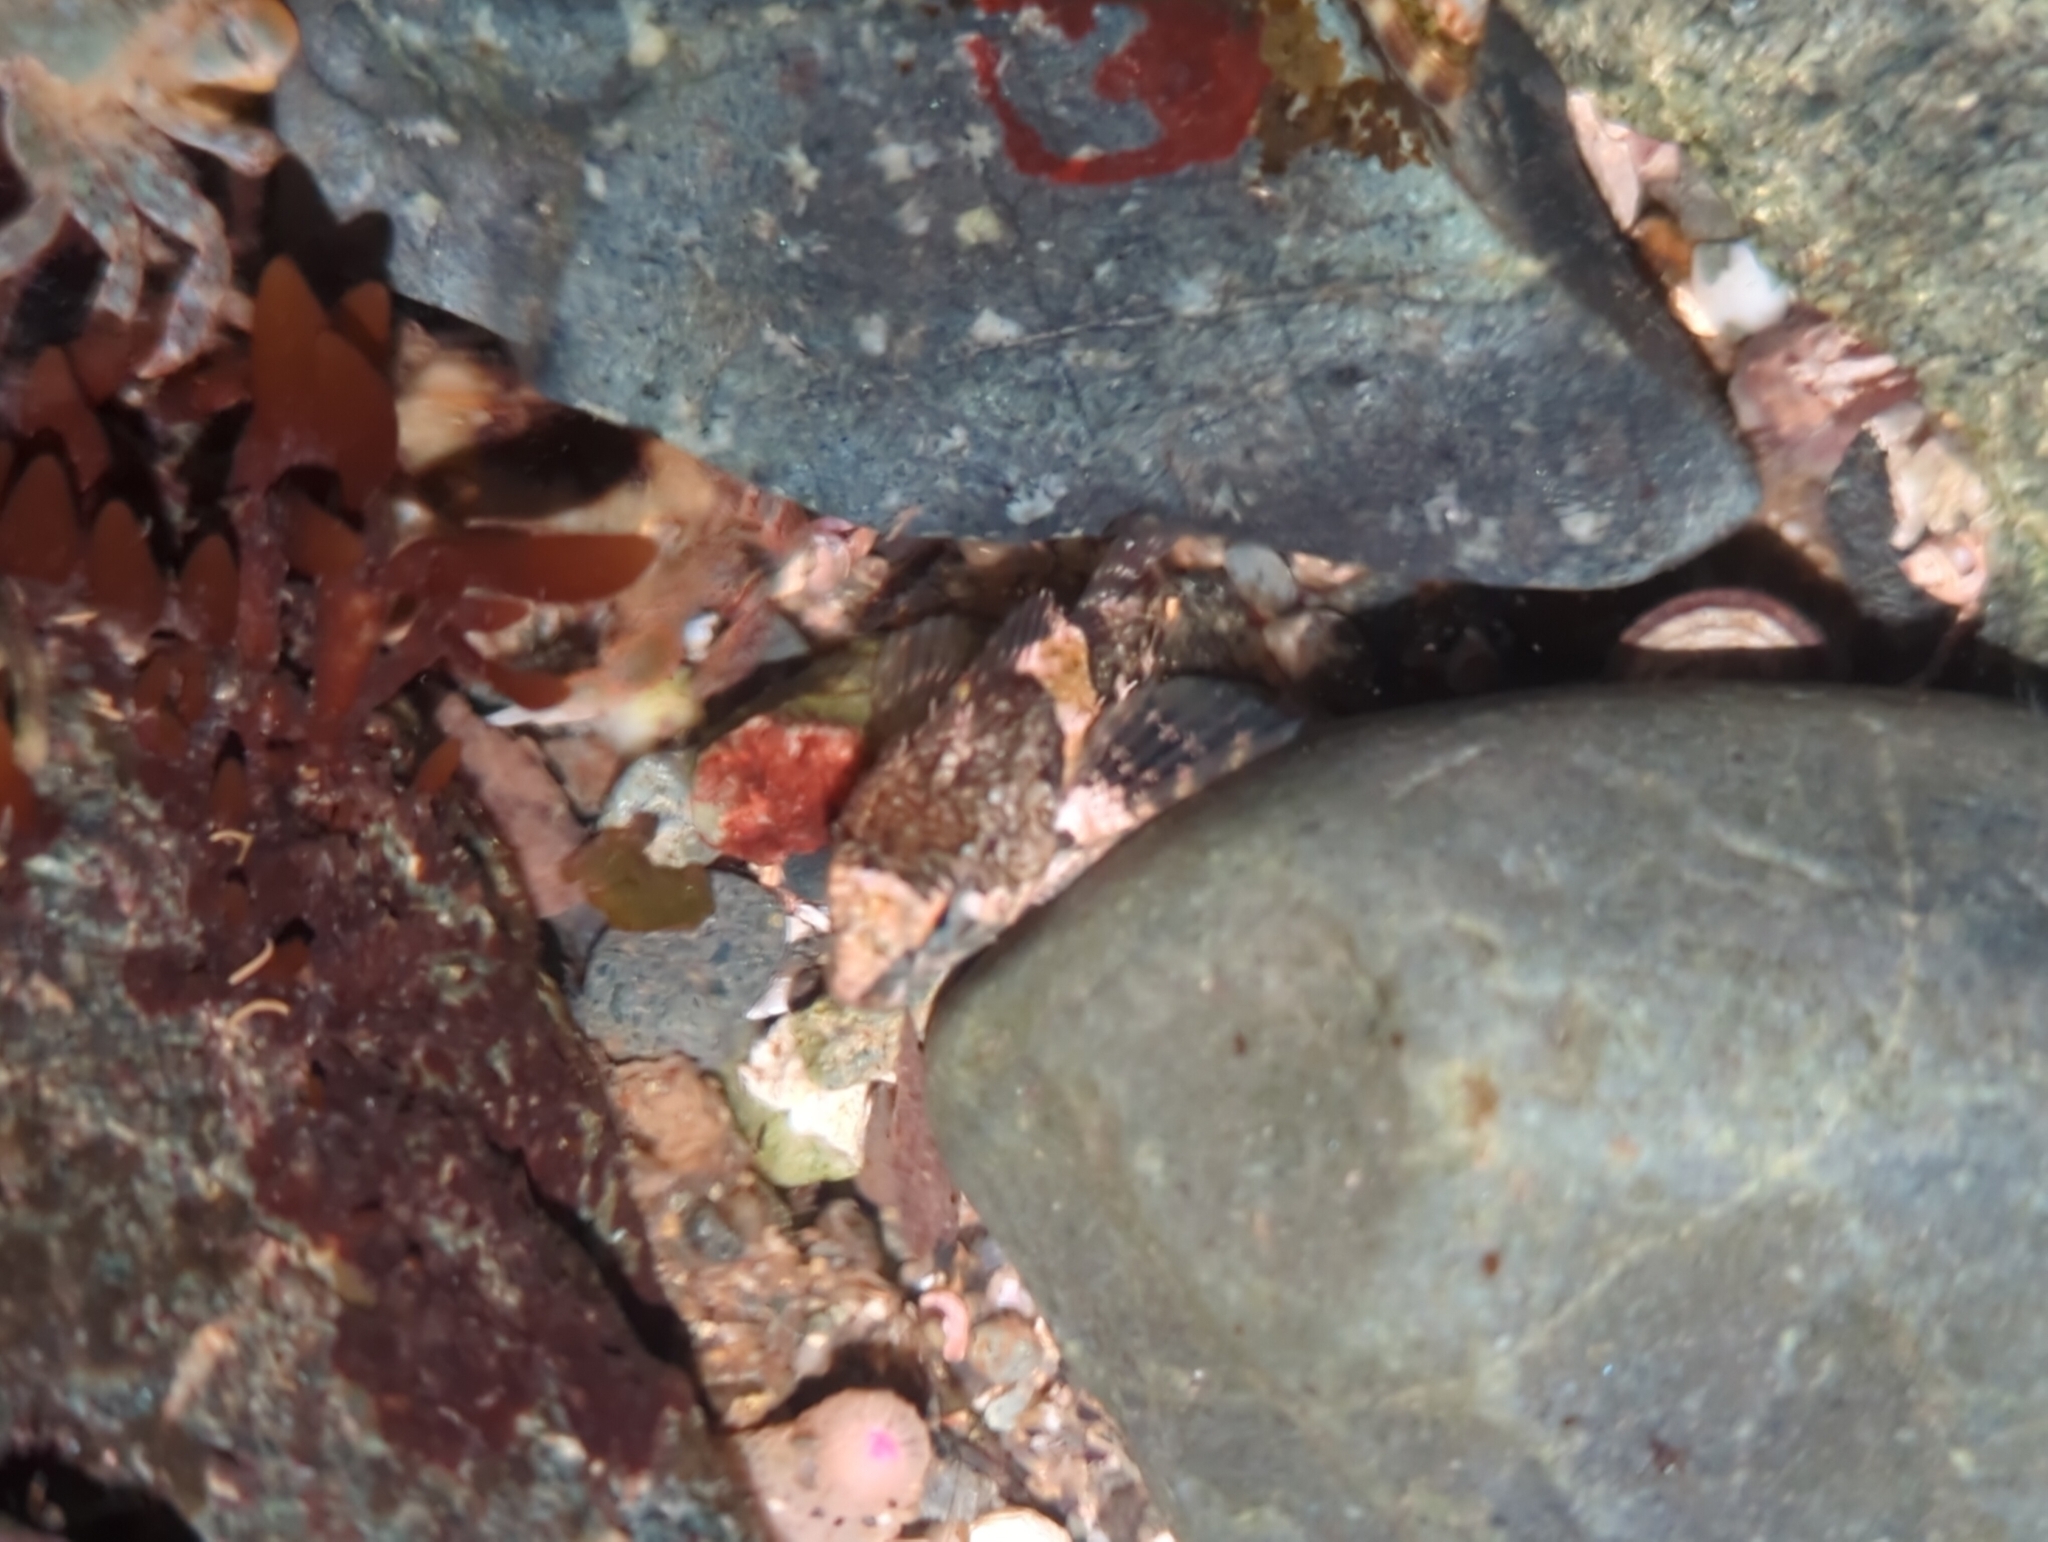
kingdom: Animalia
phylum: Chordata
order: Scorpaeniformes
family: Cottidae
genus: Oligocottus
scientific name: Oligocottus maculosus
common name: Tidepool sculpin
